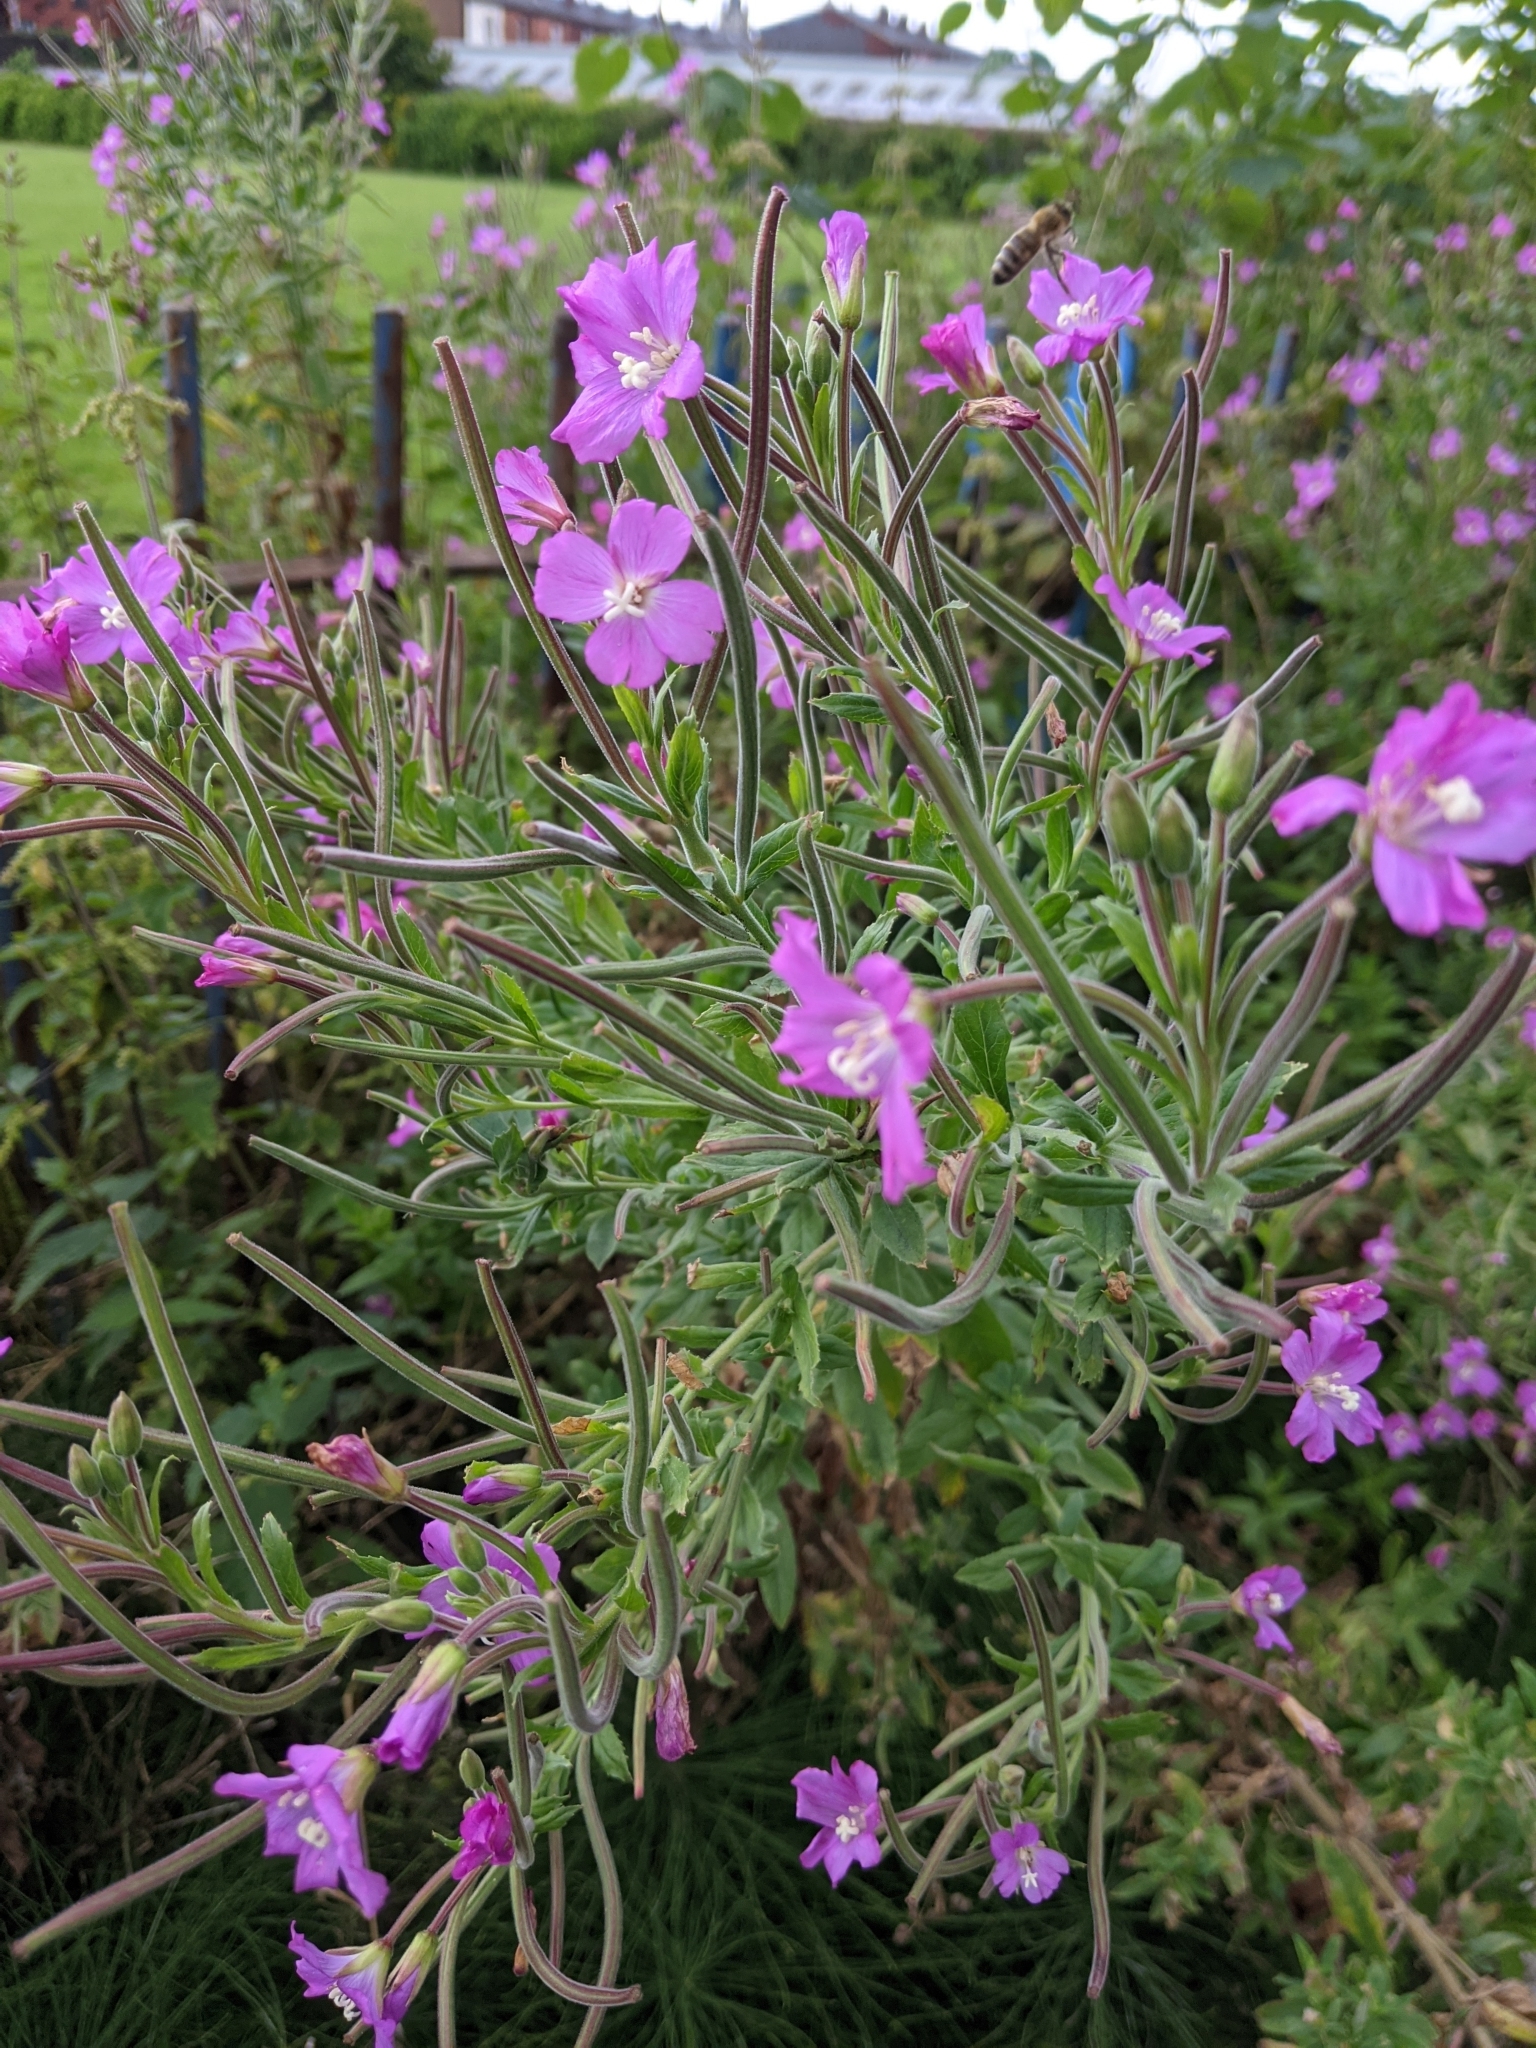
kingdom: Plantae
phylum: Tracheophyta
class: Magnoliopsida
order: Myrtales
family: Onagraceae
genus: Epilobium
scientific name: Epilobium hirsutum
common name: Great willowherb
